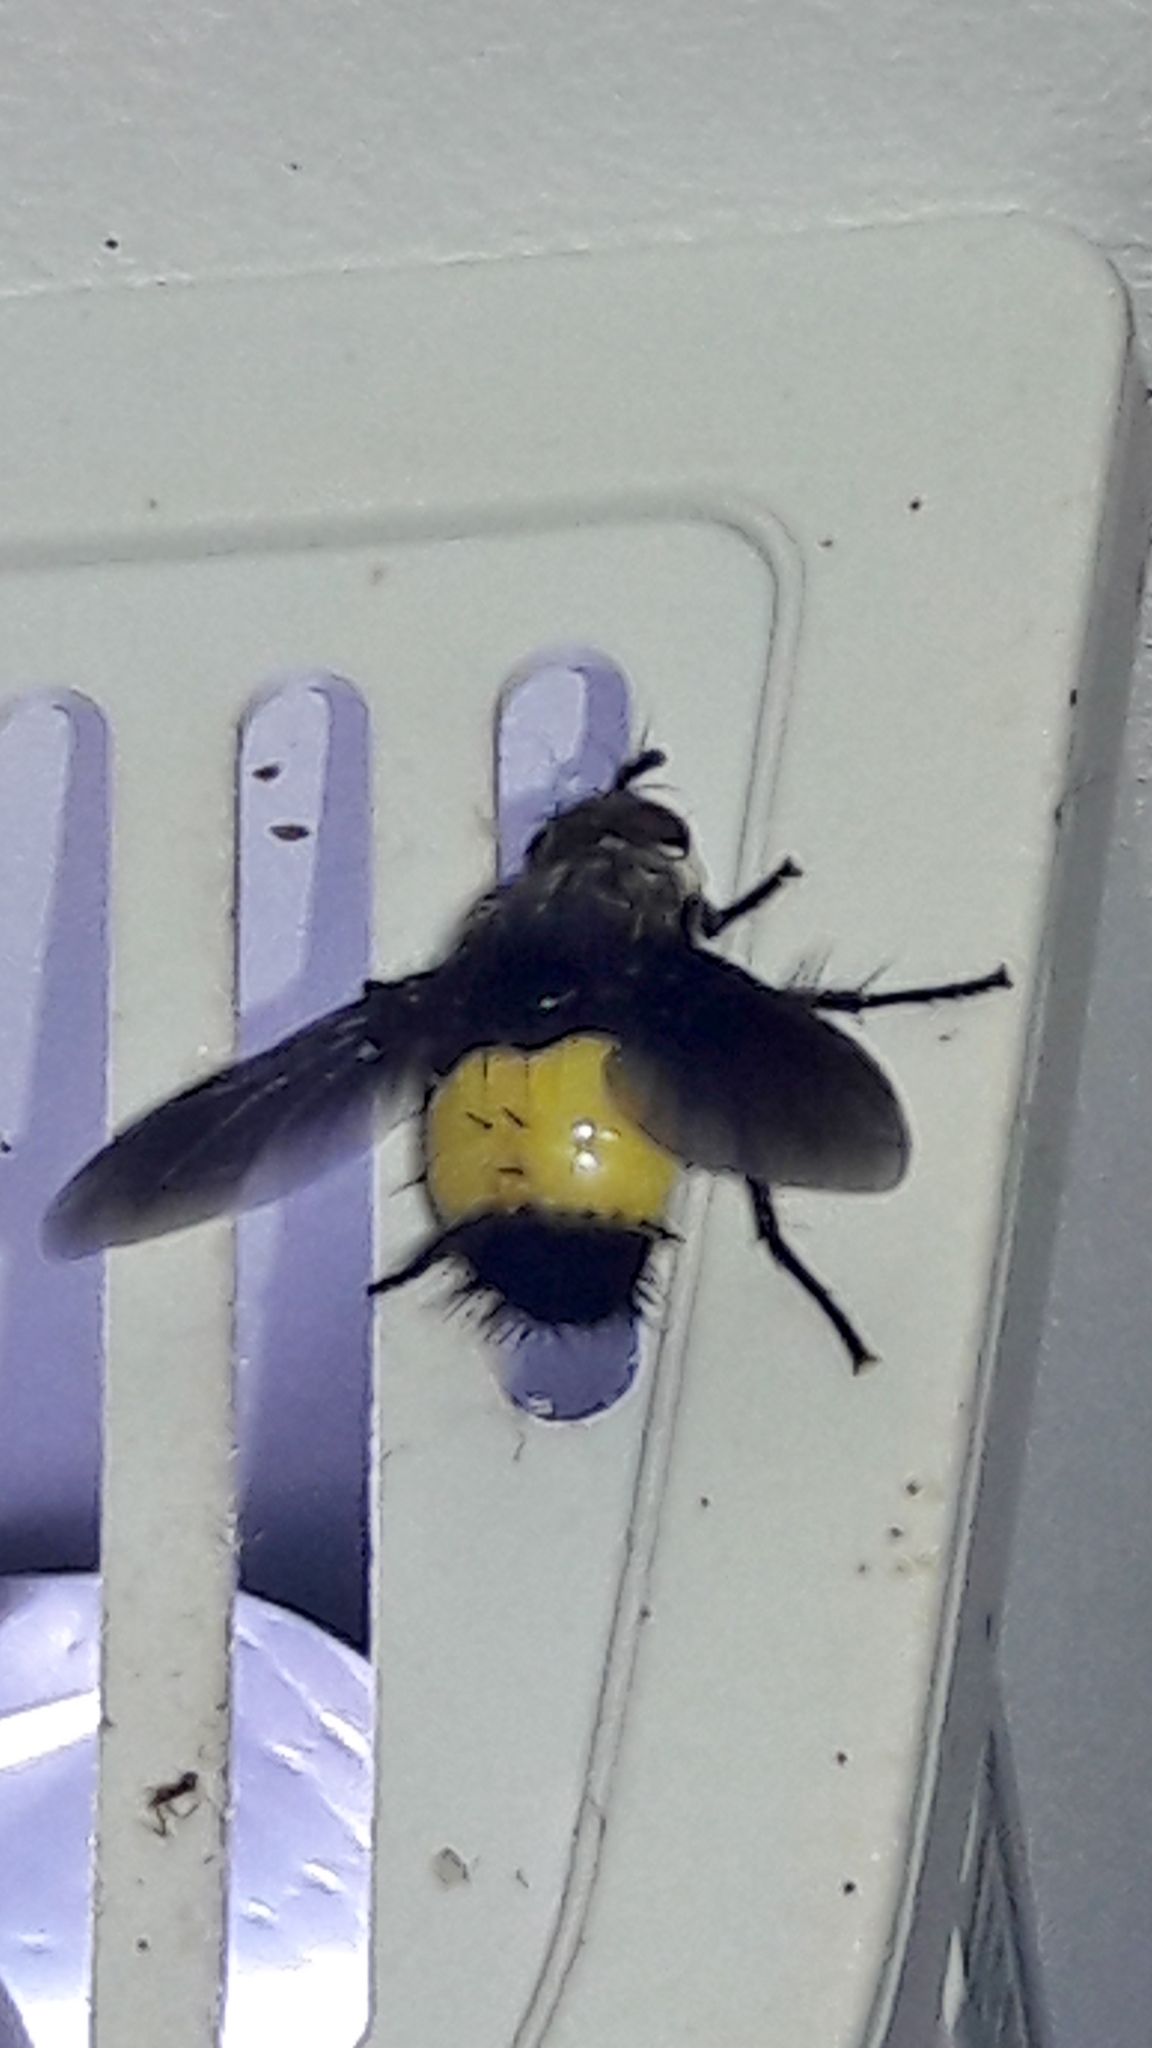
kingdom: Animalia
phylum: Arthropoda
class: Insecta
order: Diptera
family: Tachinidae
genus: Xanthozona
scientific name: Xanthozona melanopyga
